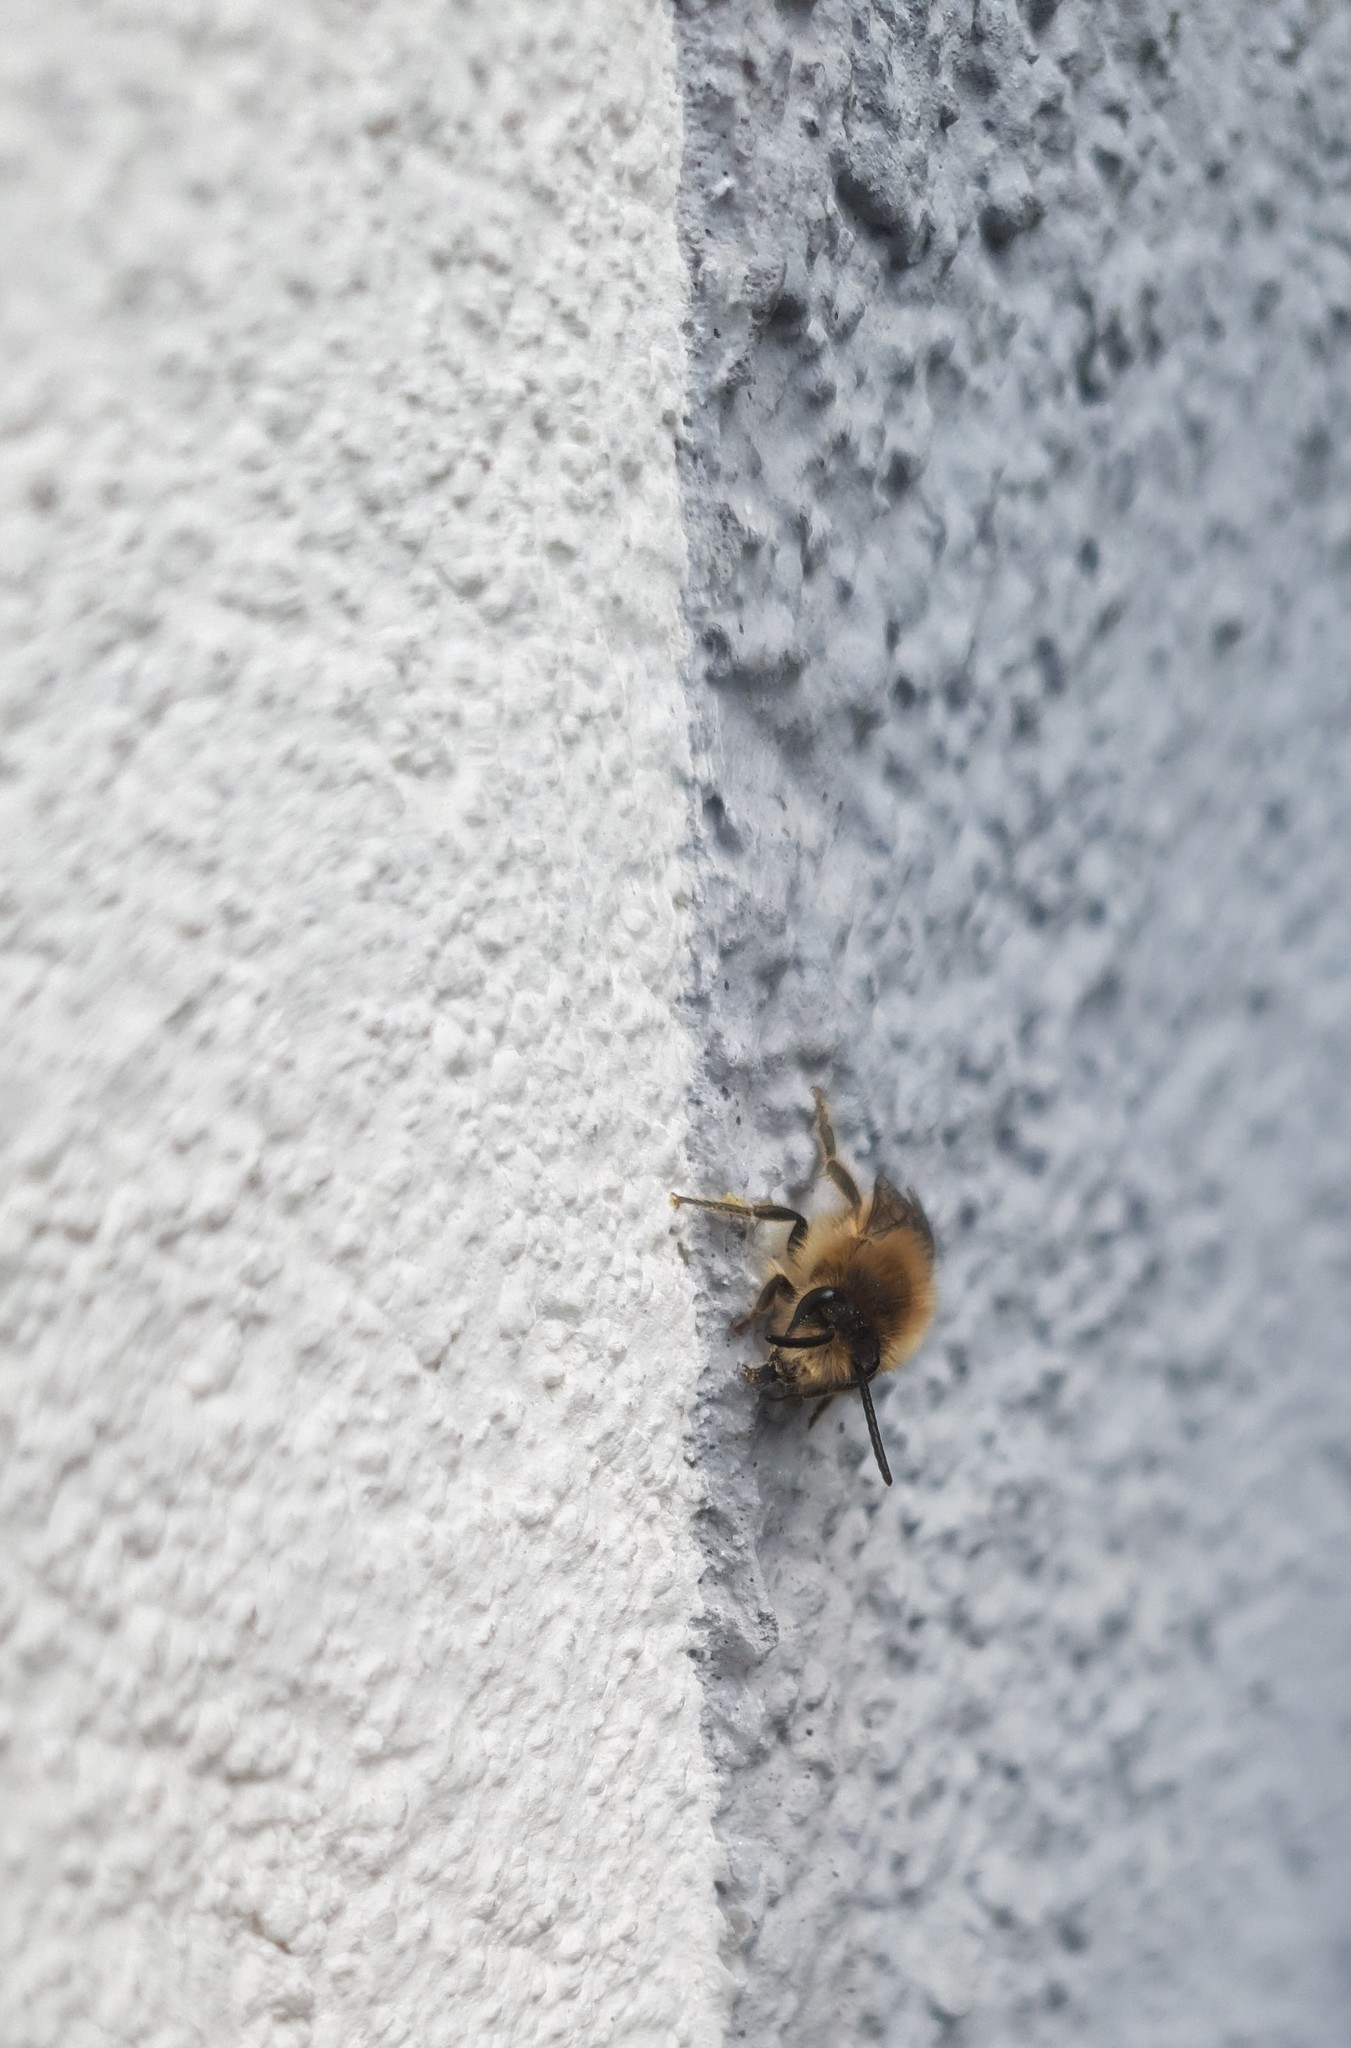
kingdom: Animalia
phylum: Arthropoda
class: Insecta
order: Hymenoptera
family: Colletidae
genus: Colletes
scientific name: Colletes cunicularius
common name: Early colletes
